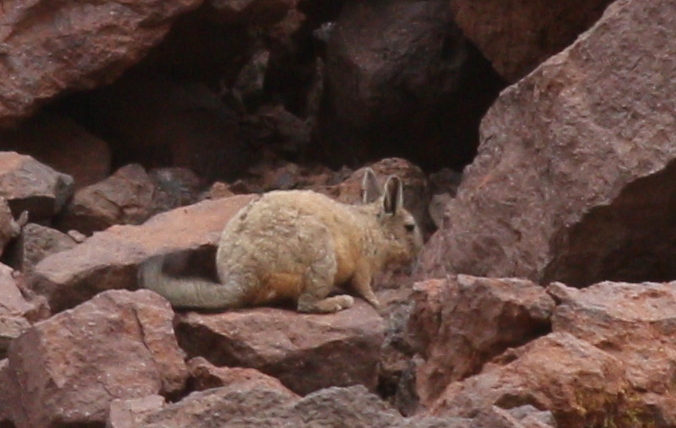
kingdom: Animalia
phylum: Chordata
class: Mammalia
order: Rodentia
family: Chinchillidae
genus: Lagidium
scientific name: Lagidium viscacia
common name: Southern viscacha
